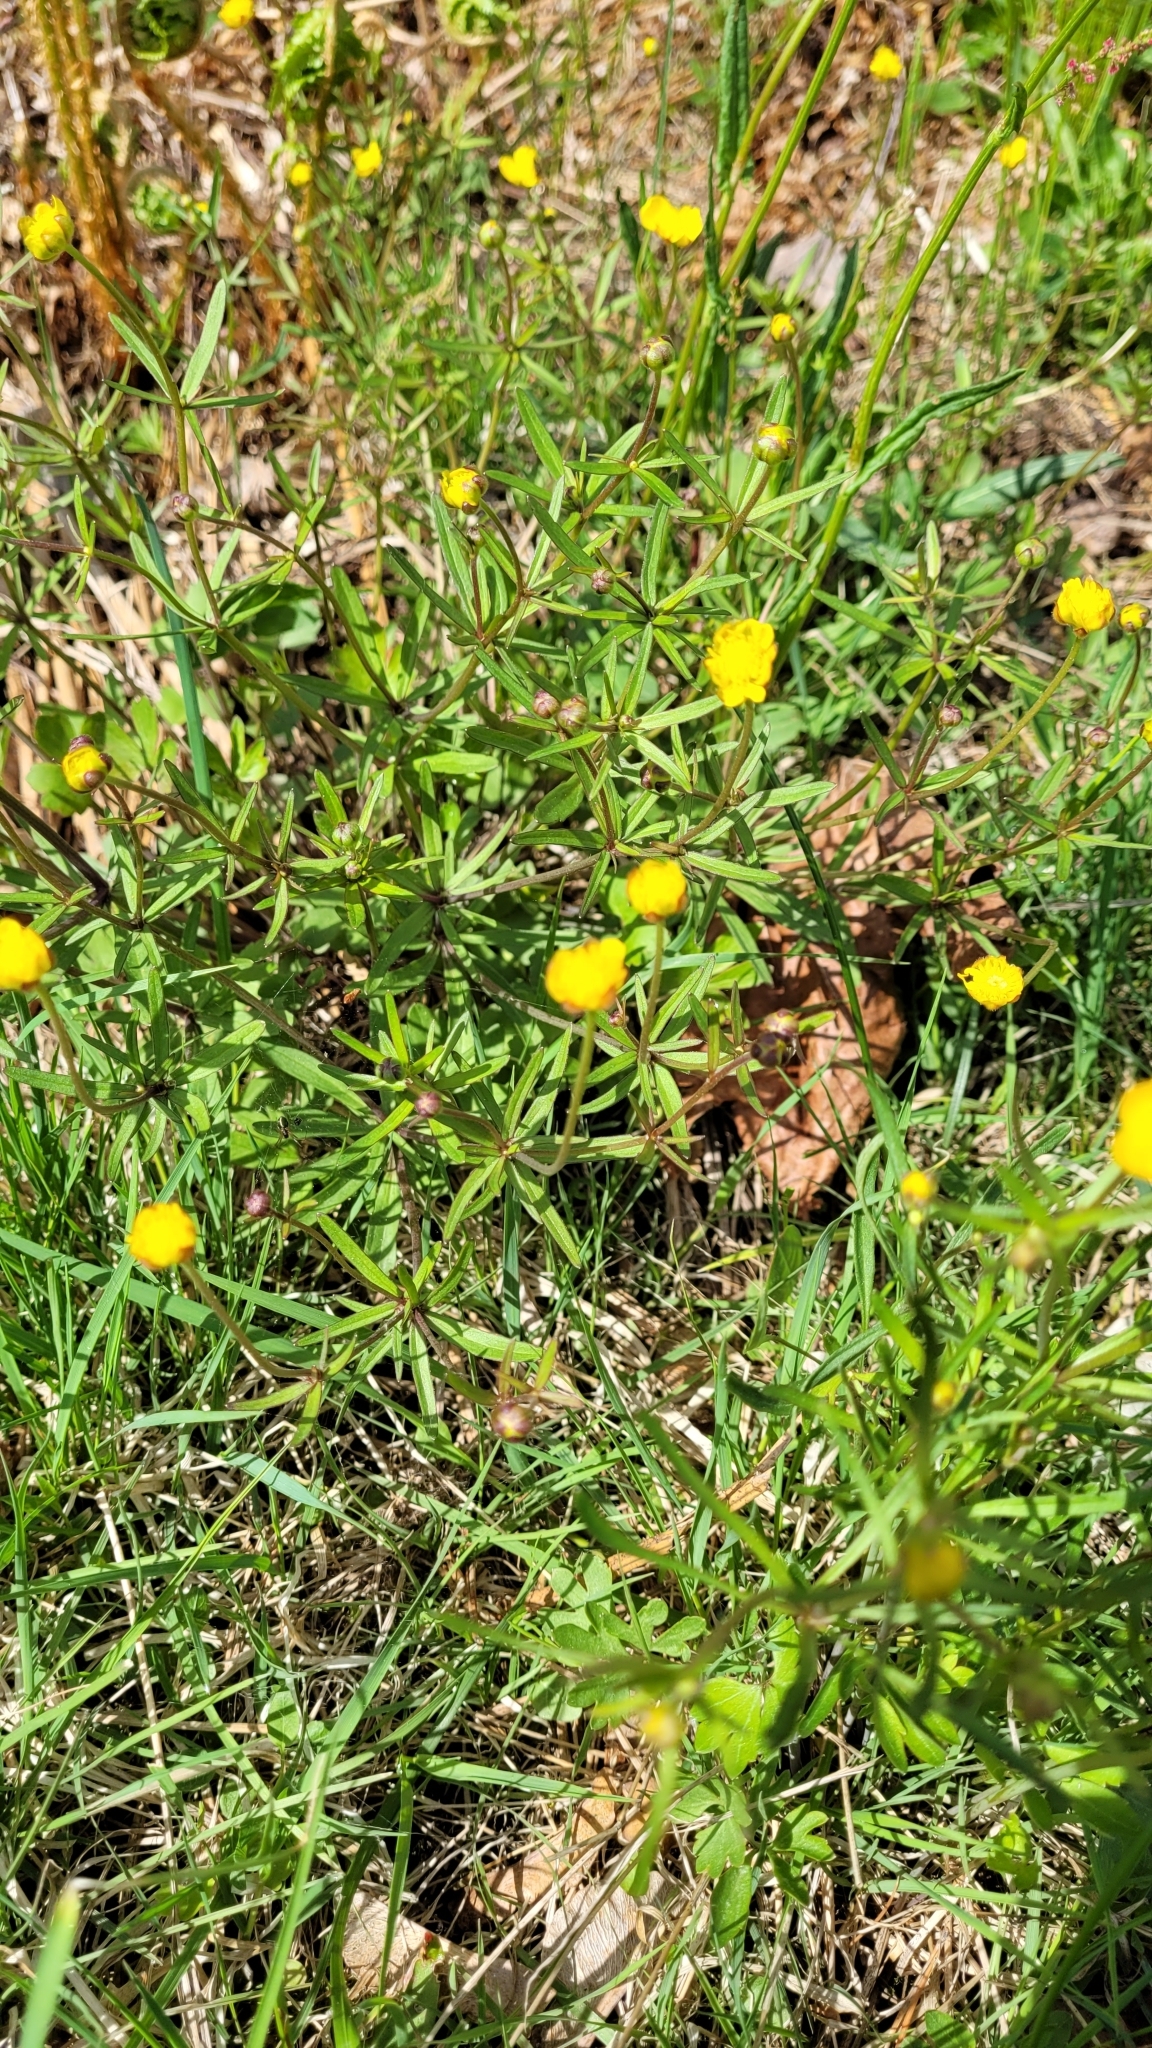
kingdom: Plantae
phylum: Tracheophyta
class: Magnoliopsida
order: Ranunculales
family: Ranunculaceae
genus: Ranunculus
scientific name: Ranunculus auricomus
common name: Goldilocks buttercup
